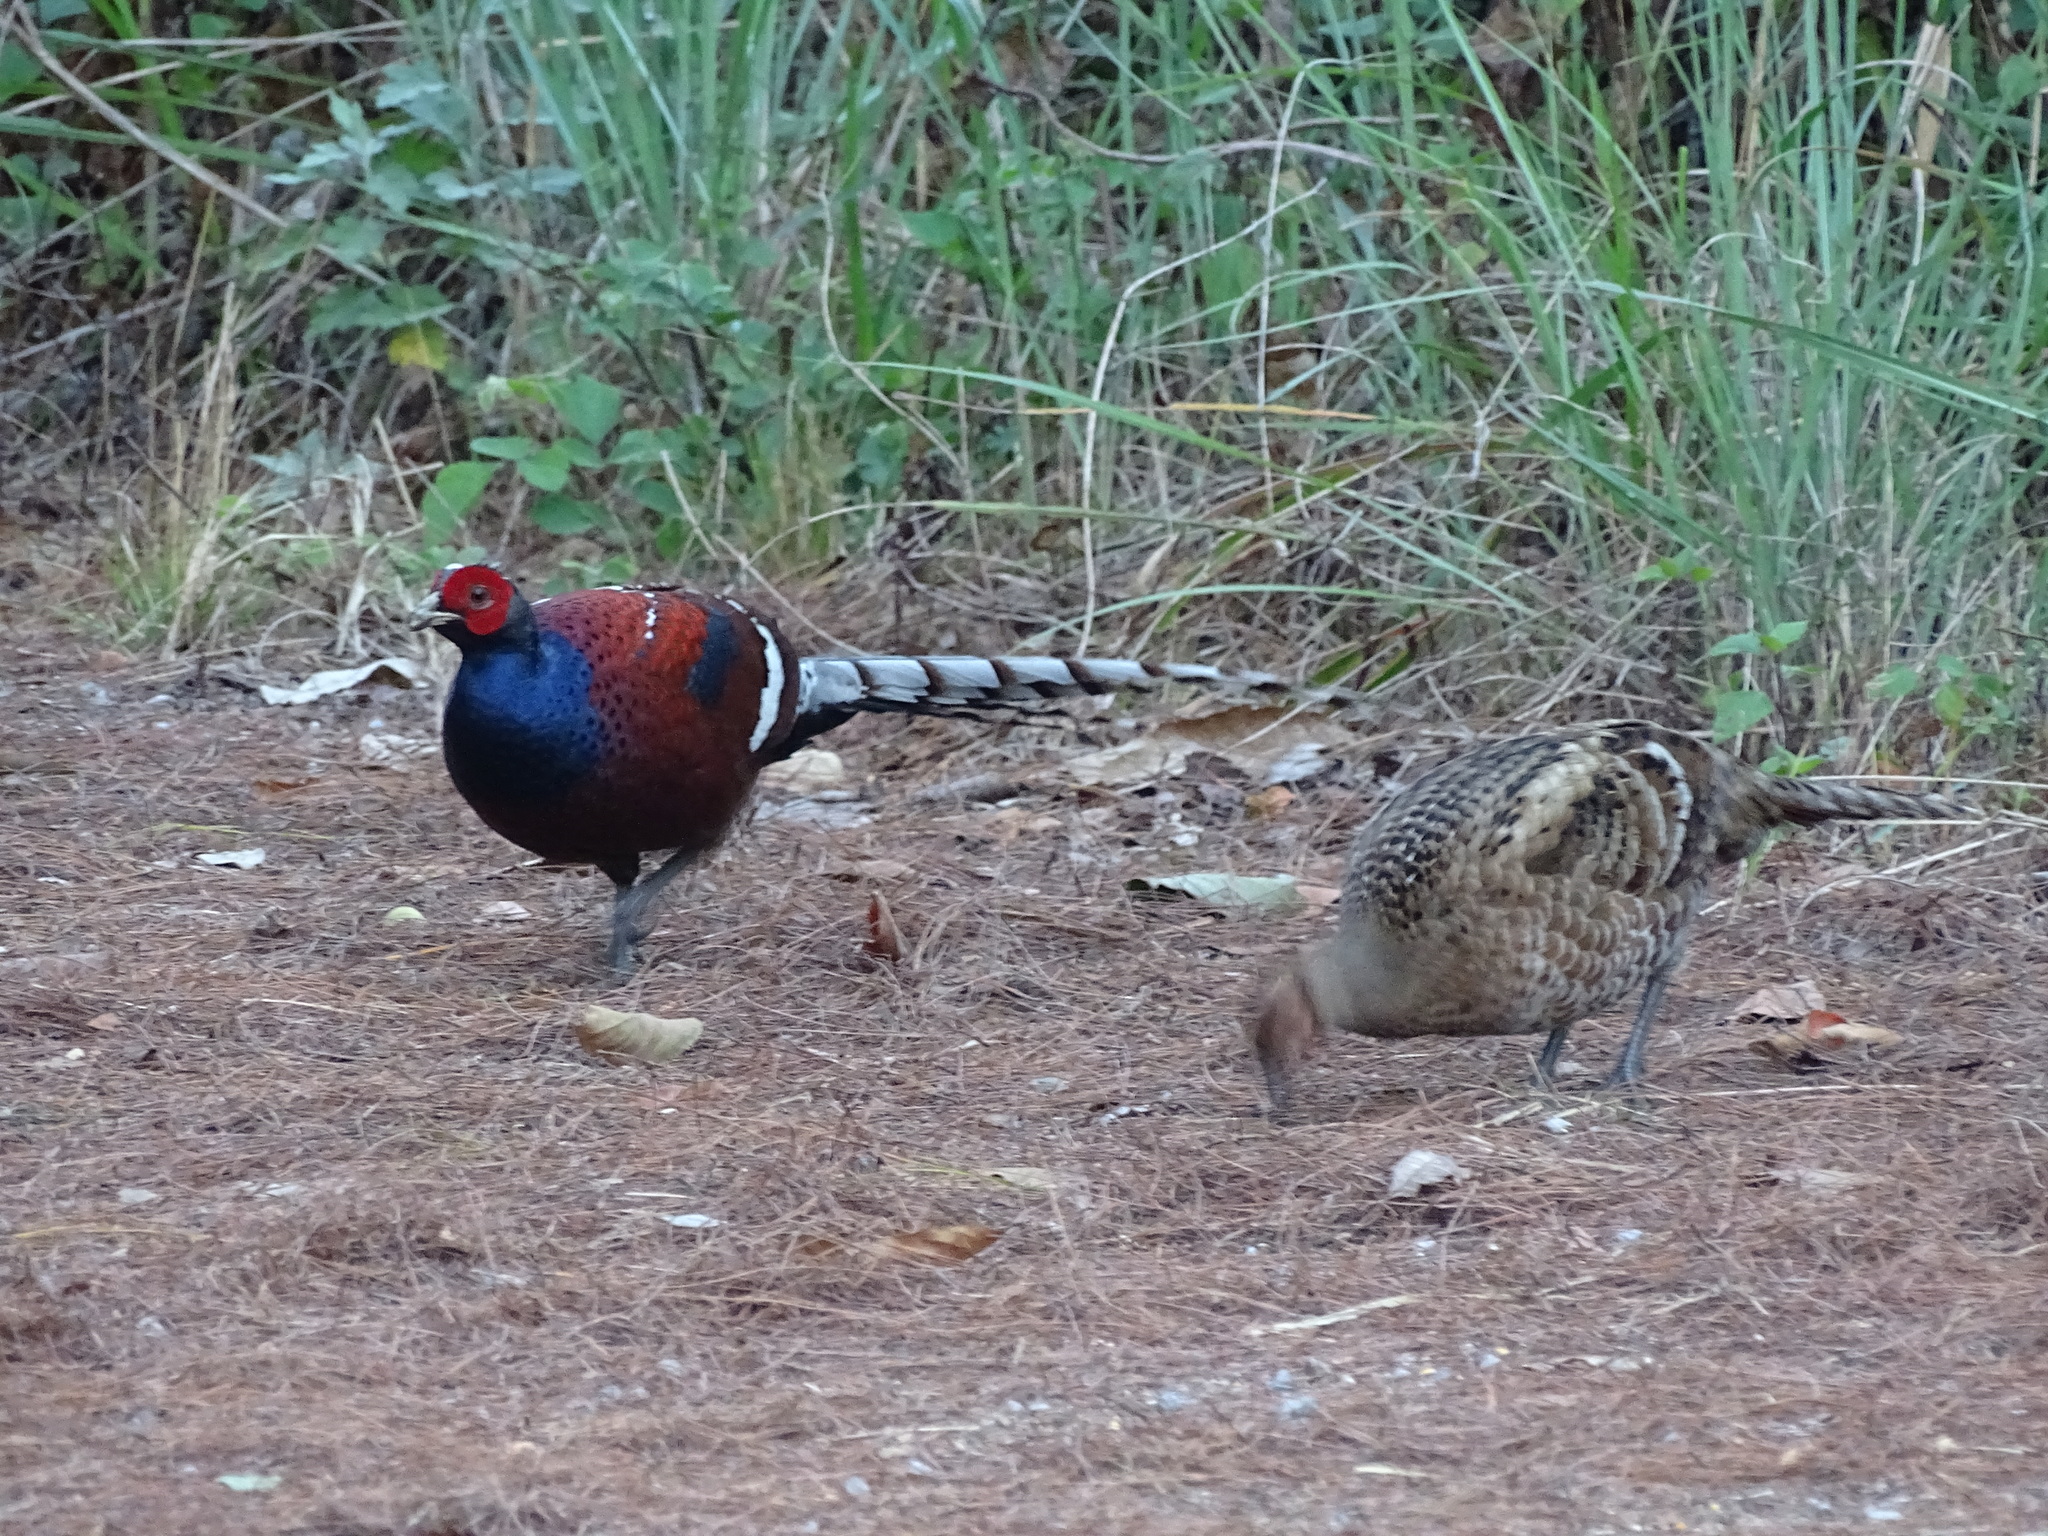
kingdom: Animalia
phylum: Chordata
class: Aves
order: Galliformes
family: Phasianidae
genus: Syrmaticus
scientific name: Syrmaticus humiae
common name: Mrs. hume's pheasant
